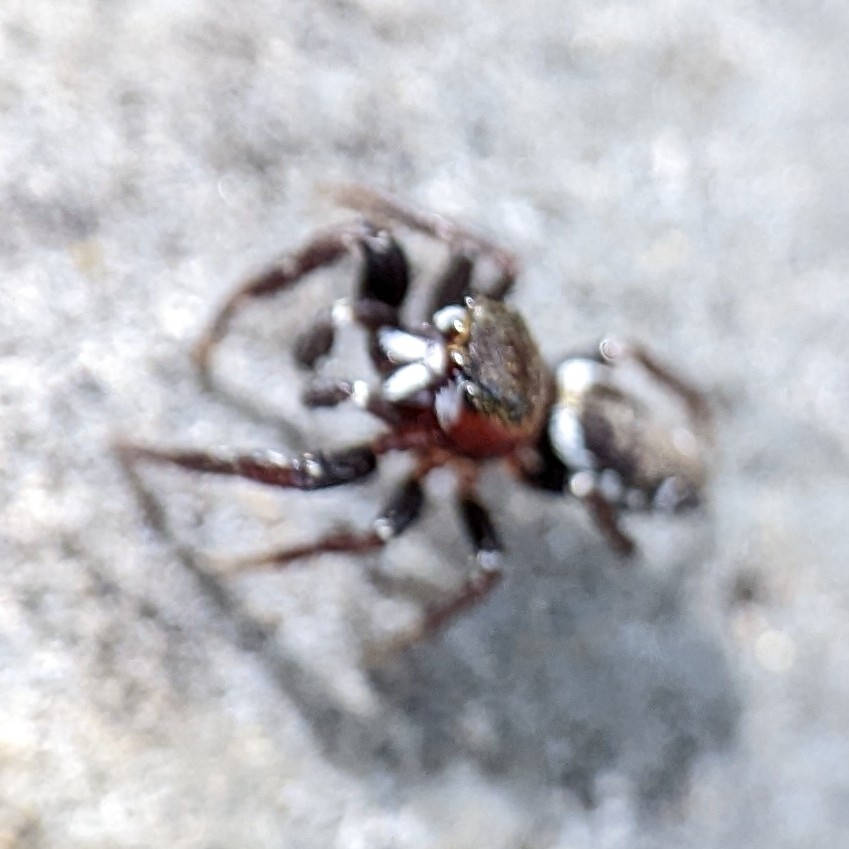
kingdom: Animalia
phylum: Arthropoda
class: Arachnida
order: Araneae
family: Salticidae
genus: Metaphidippus
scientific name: Metaphidippus manni
